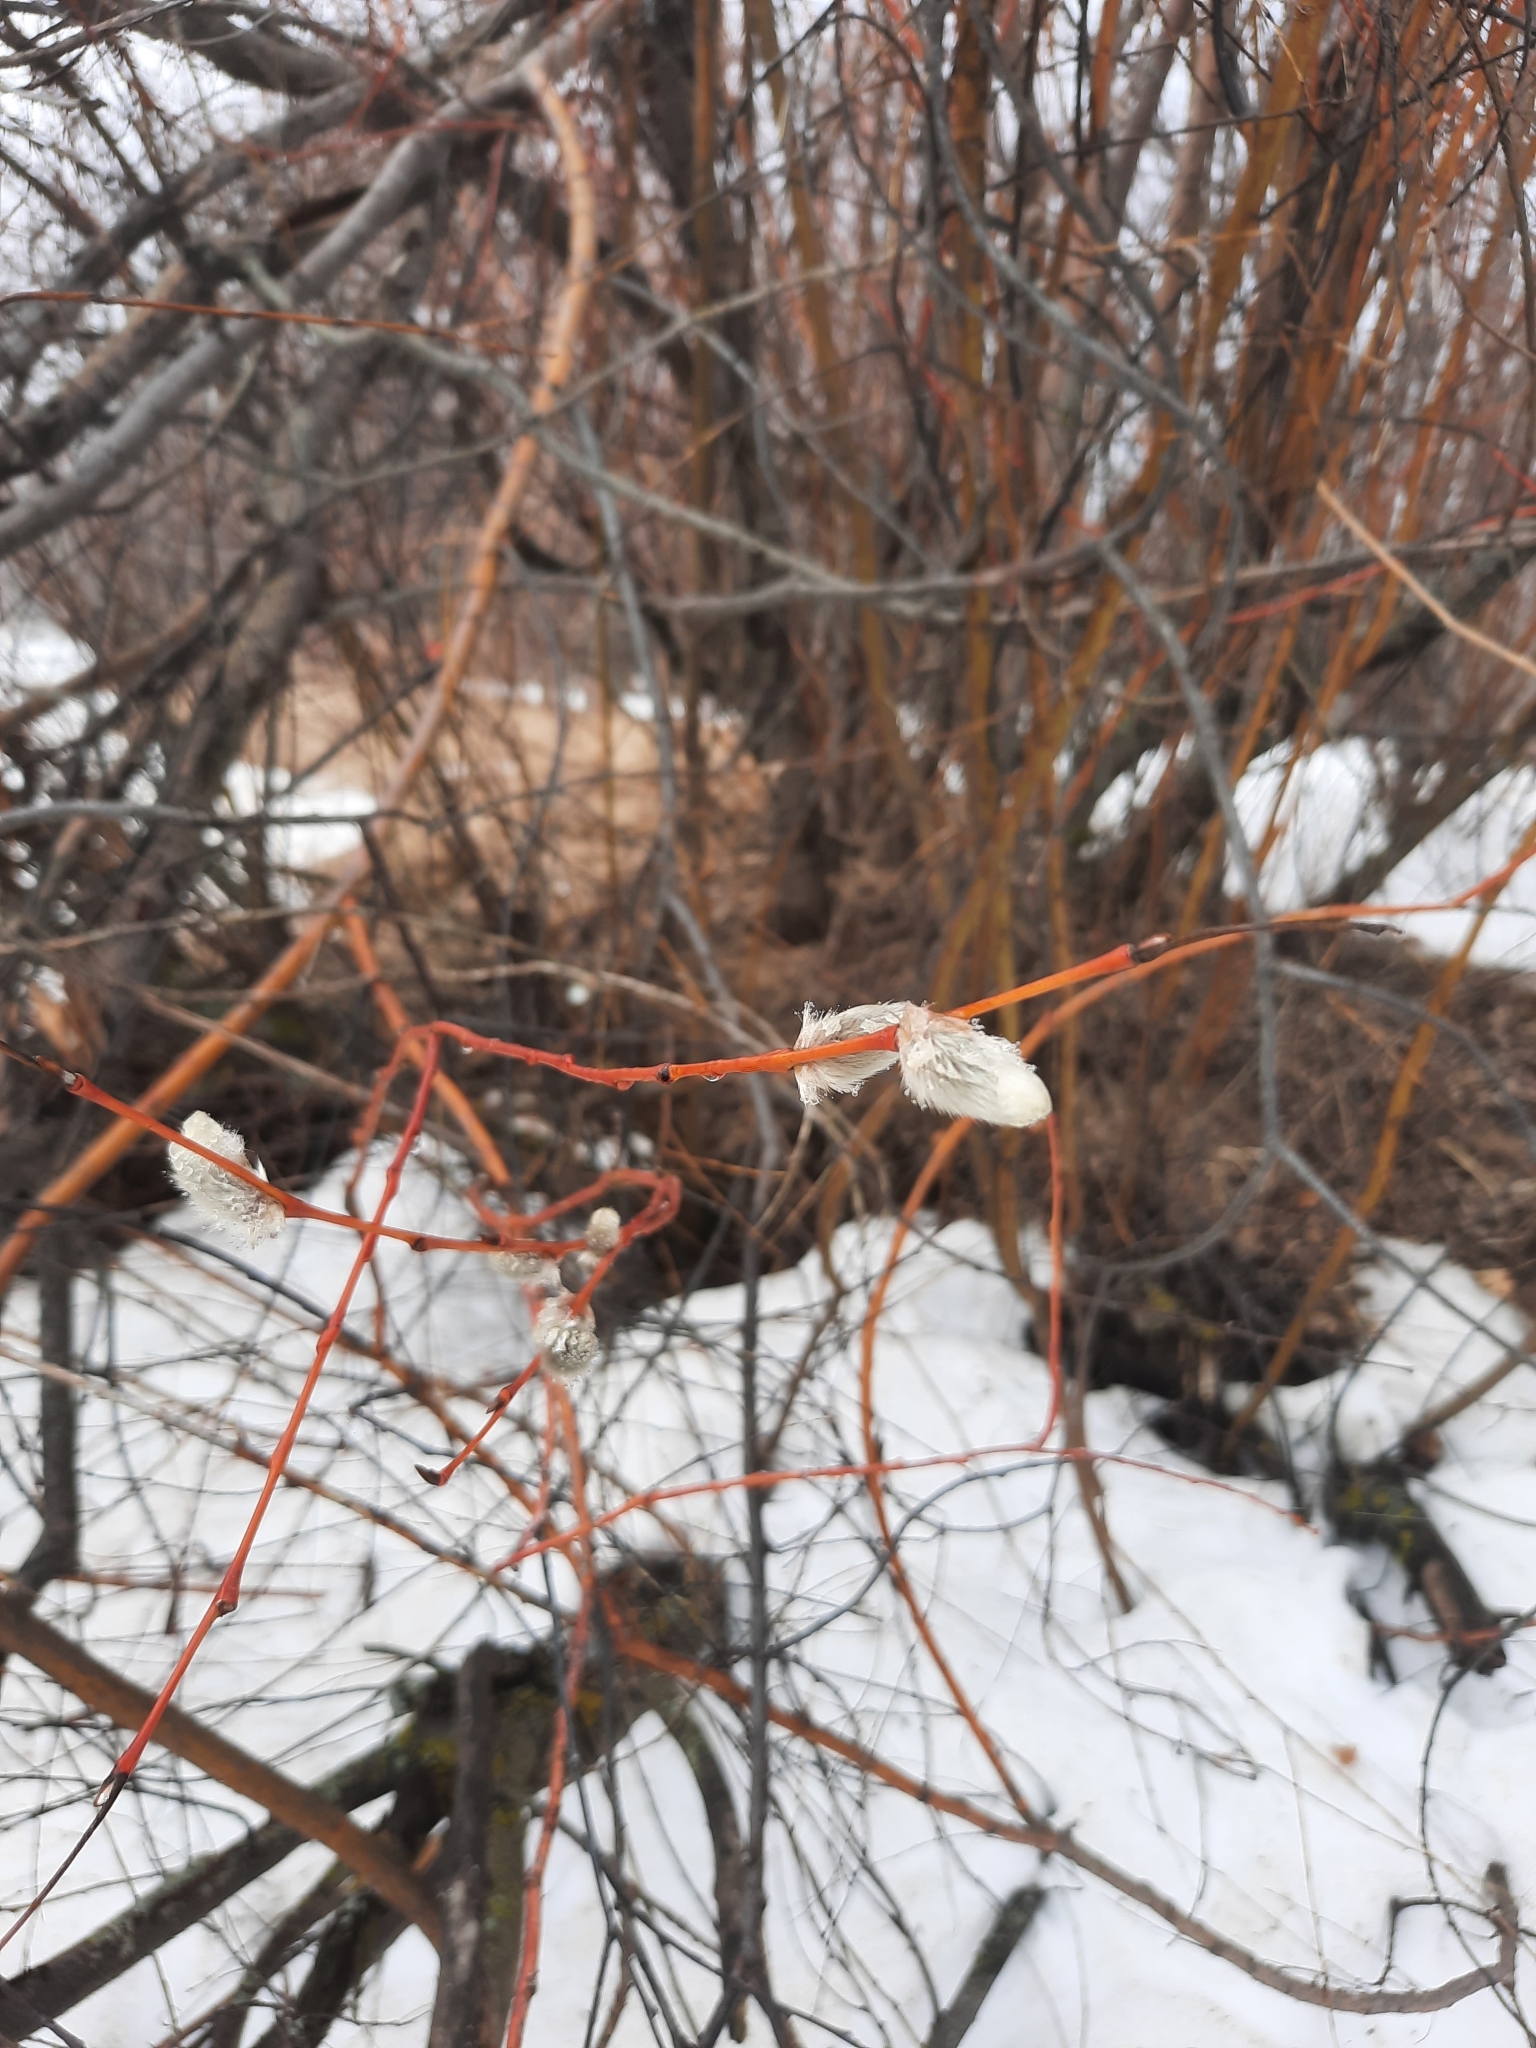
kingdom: Plantae
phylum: Tracheophyta
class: Magnoliopsida
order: Malpighiales
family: Salicaceae
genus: Salix
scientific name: Salix acutifolia
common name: Siberian violet-willow
